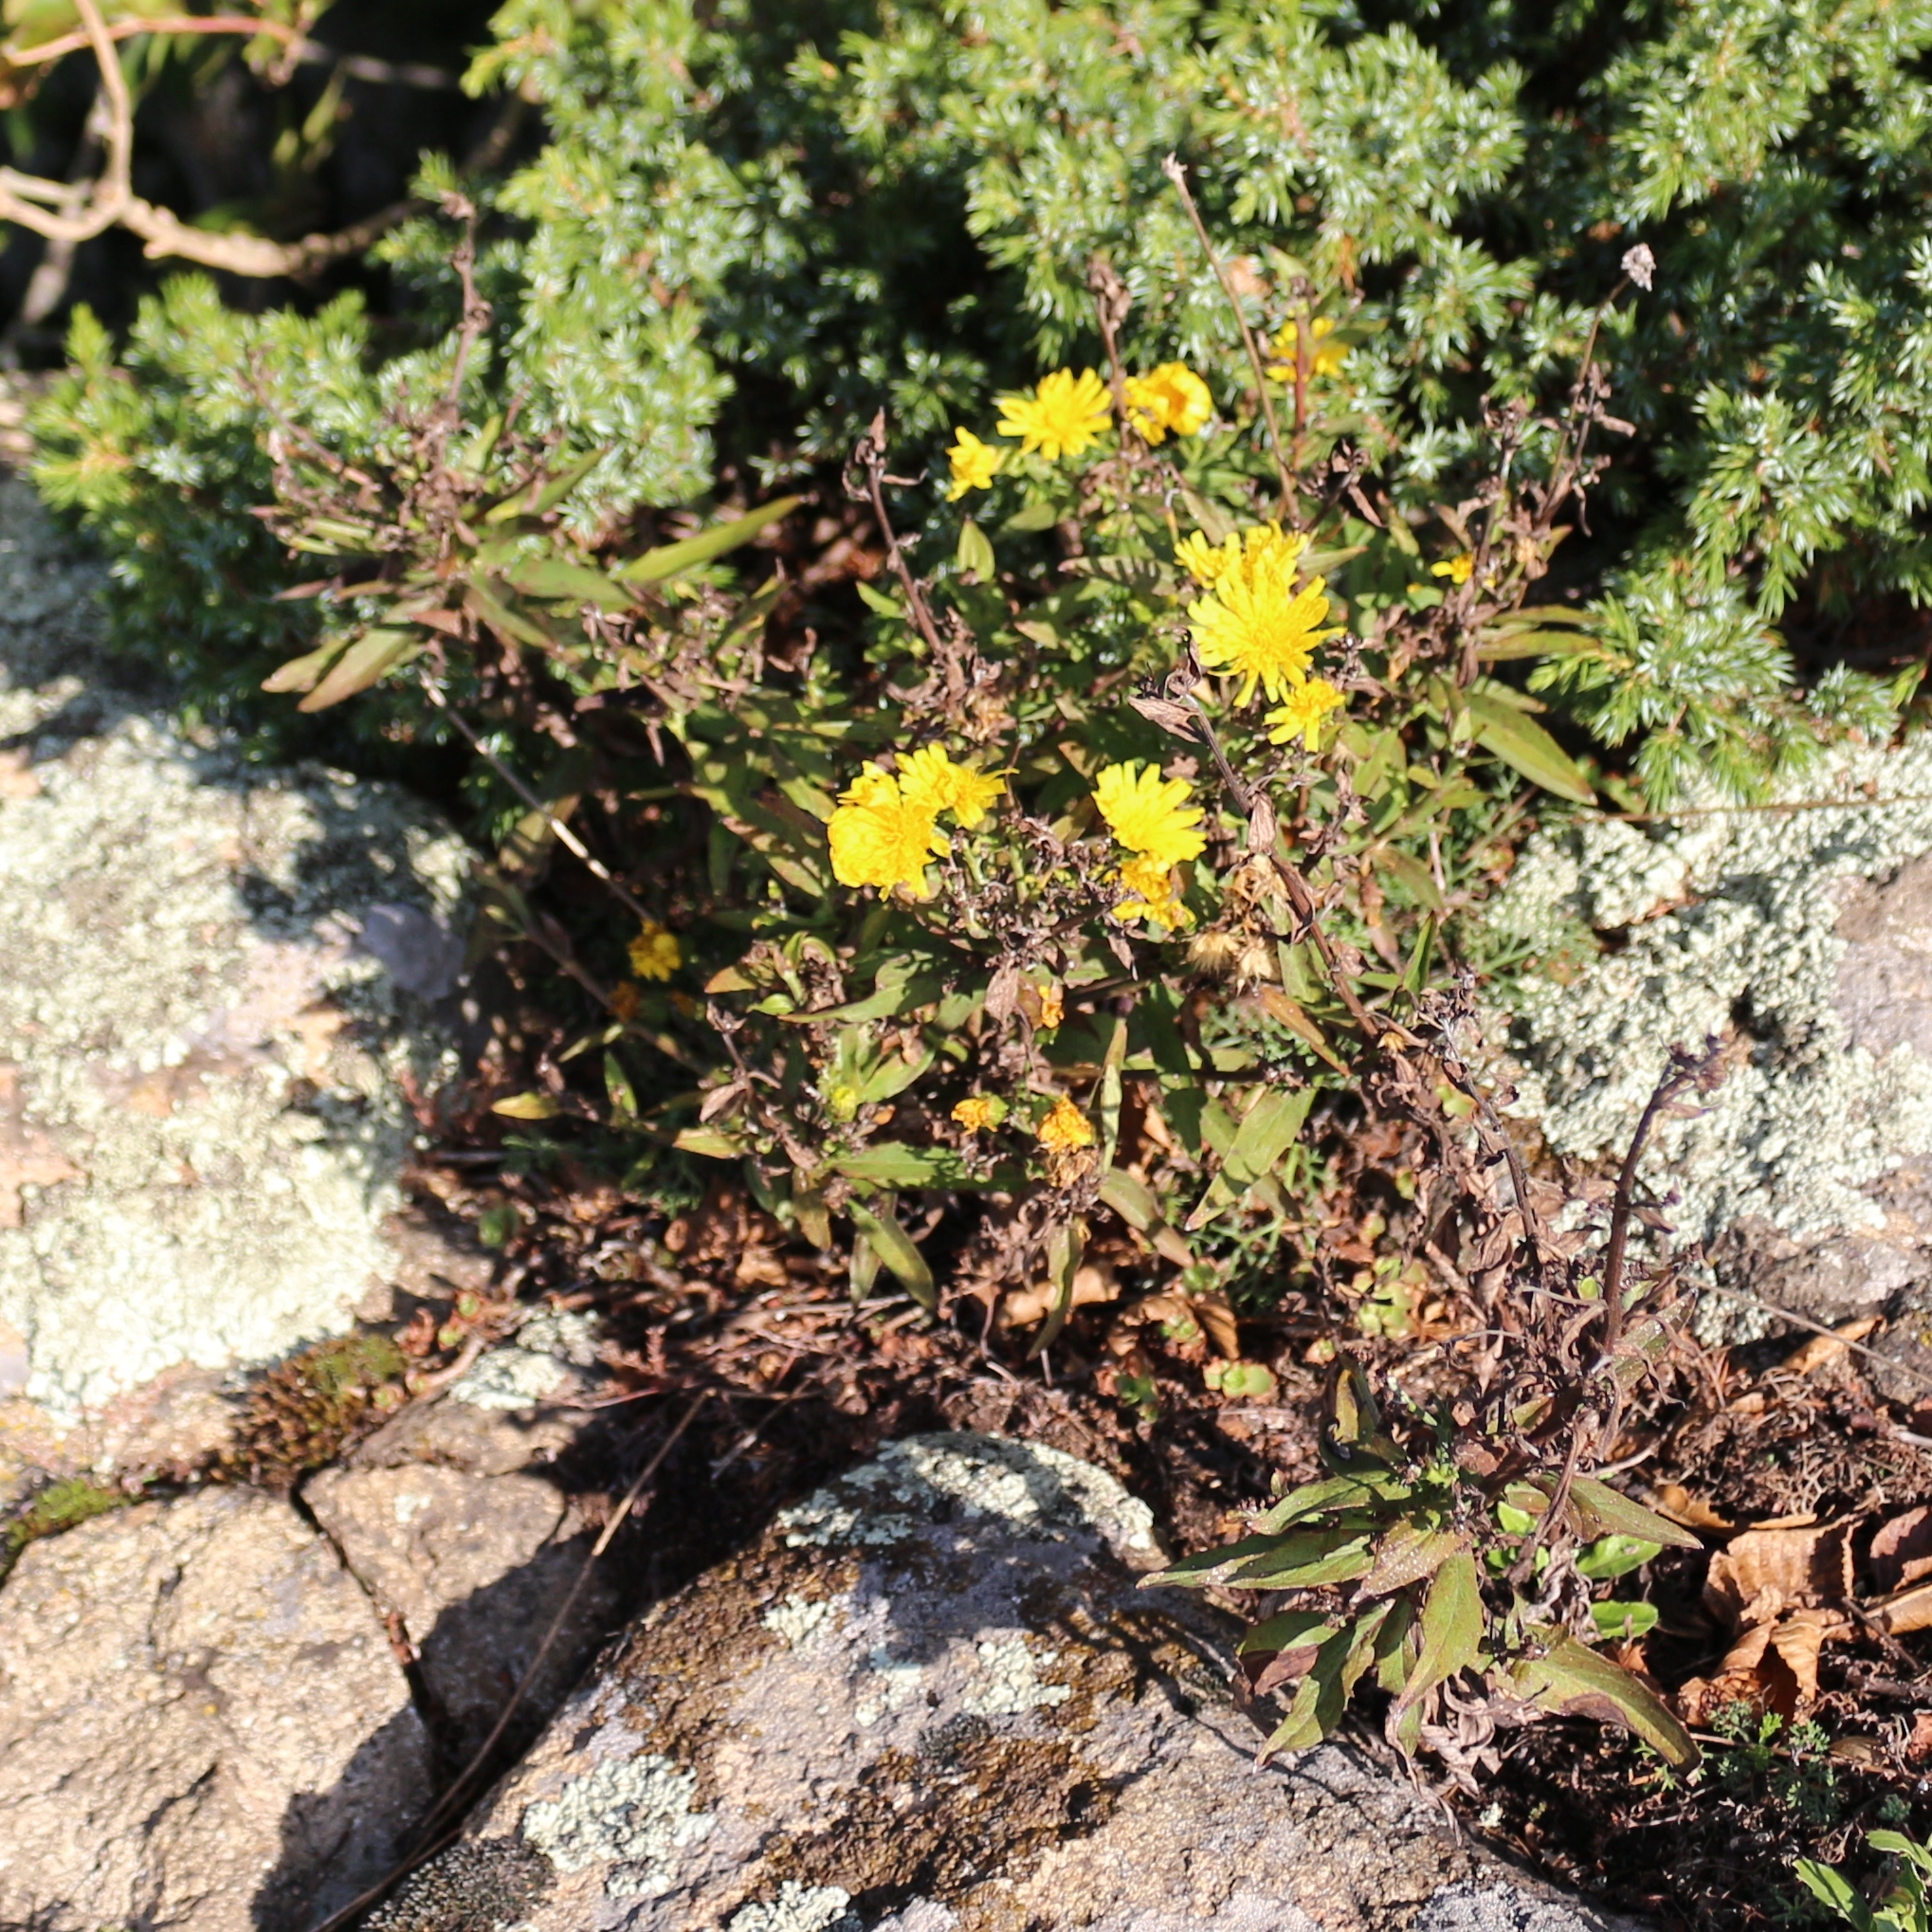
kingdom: Plantae
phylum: Tracheophyta
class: Magnoliopsida
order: Asterales
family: Asteraceae
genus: Hieracium
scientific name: Hieracium umbellatum
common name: Northern hawkweed
